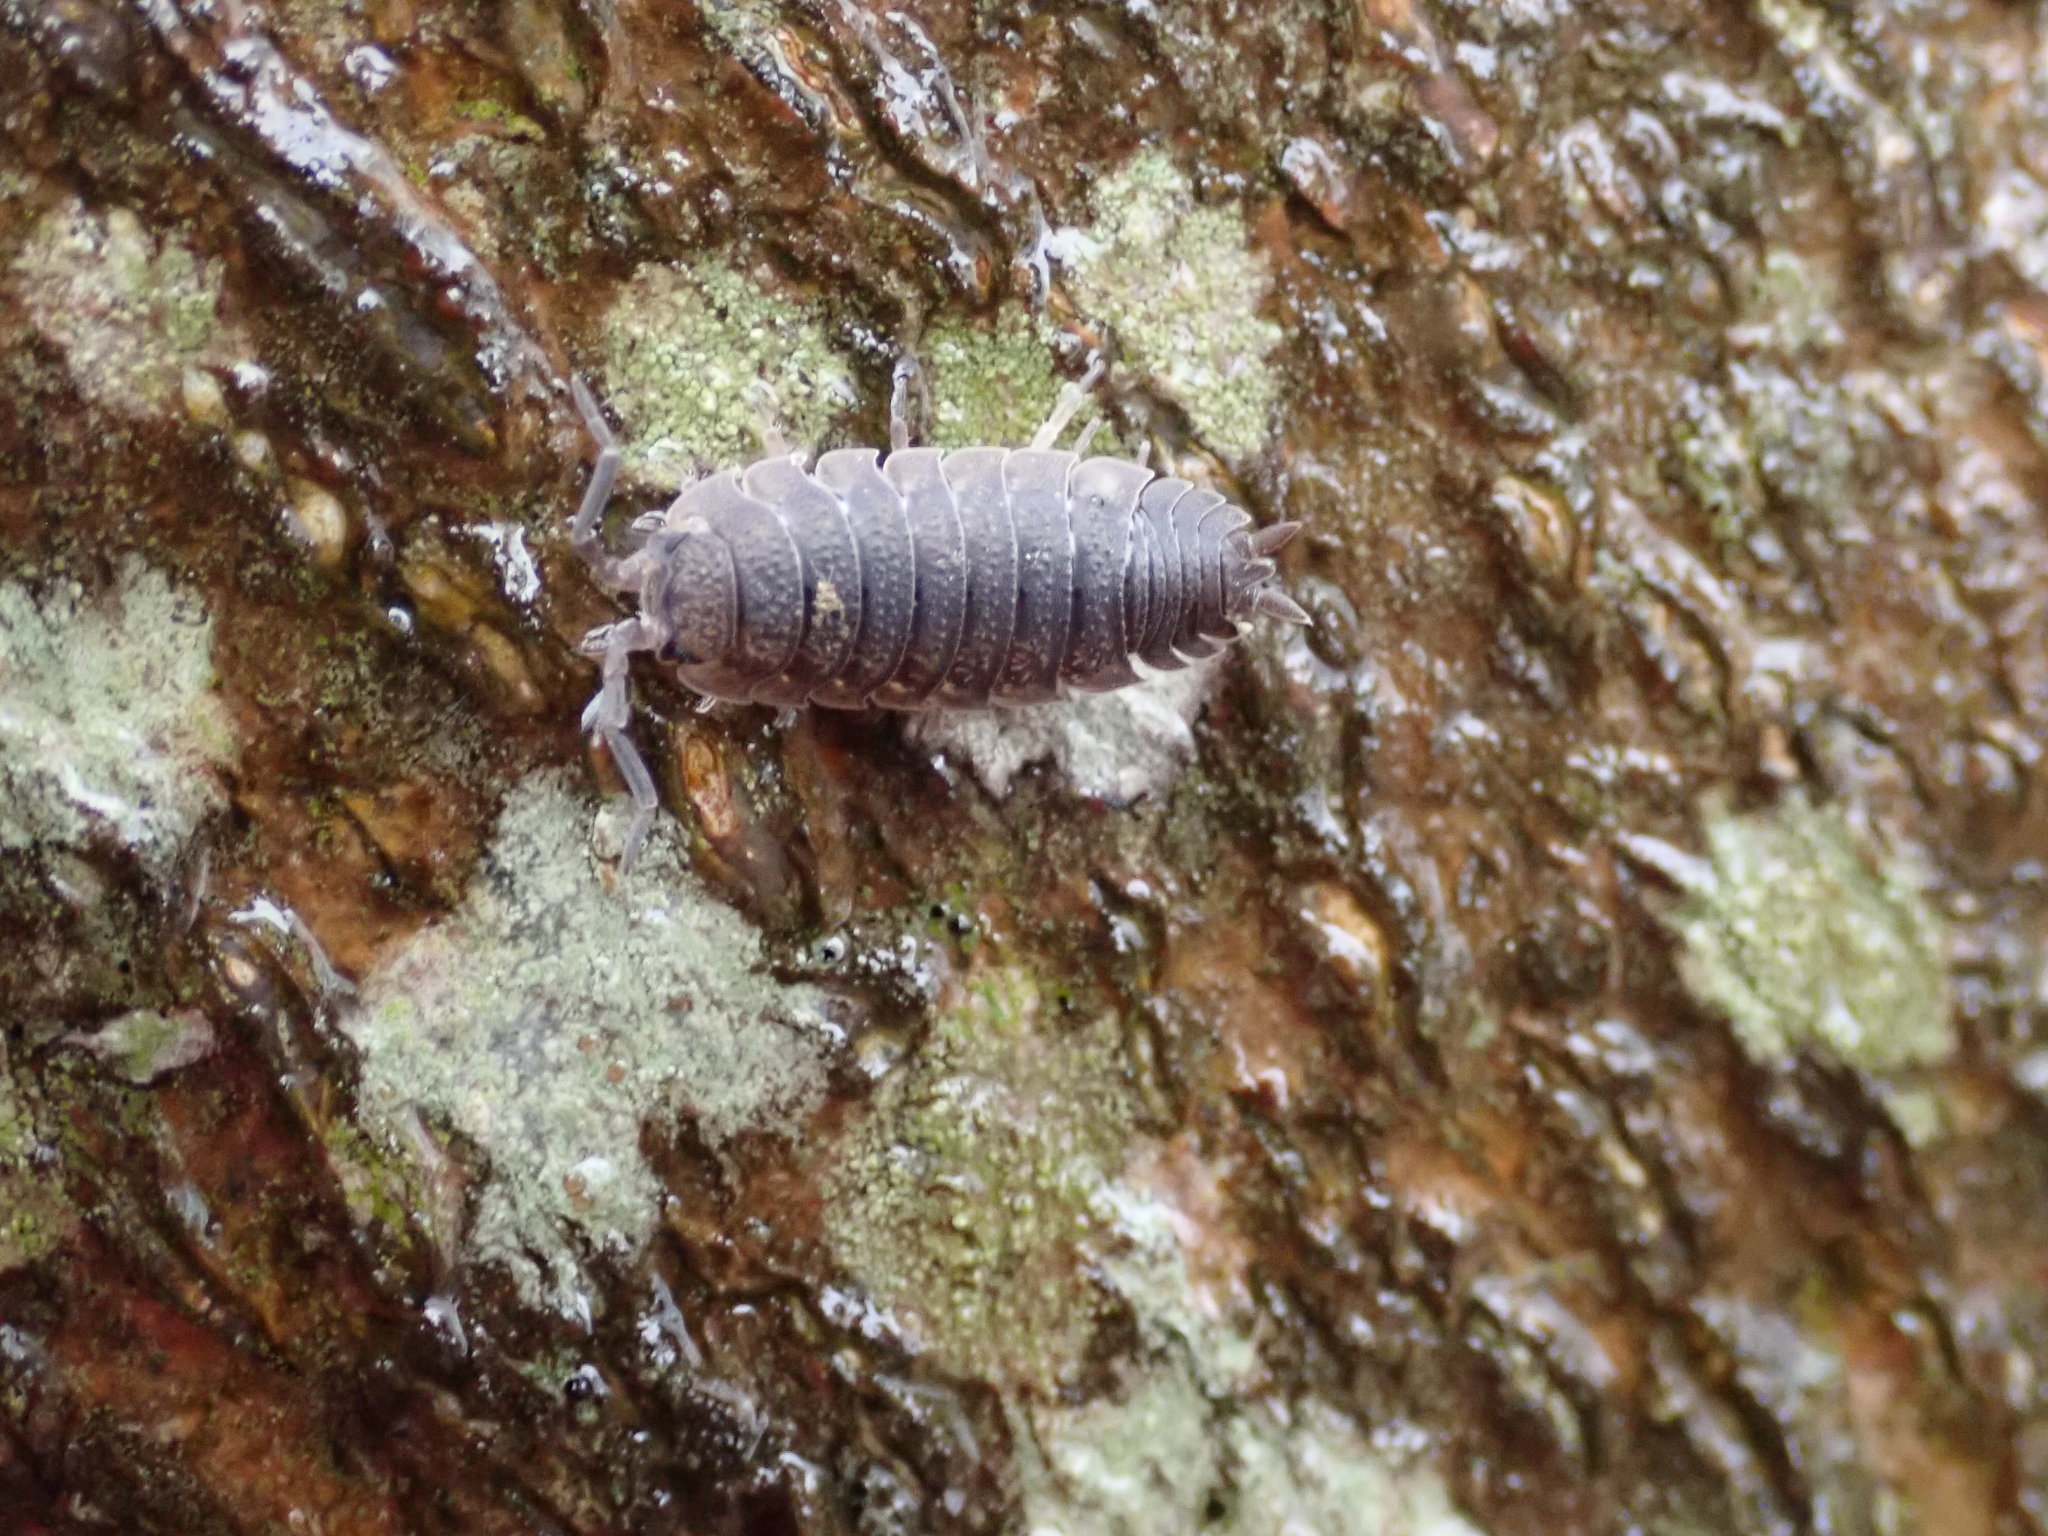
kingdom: Animalia
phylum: Arthropoda
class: Malacostraca
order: Isopoda
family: Porcellionidae
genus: Porcellio
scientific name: Porcellio scaber
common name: Common rough woodlouse
